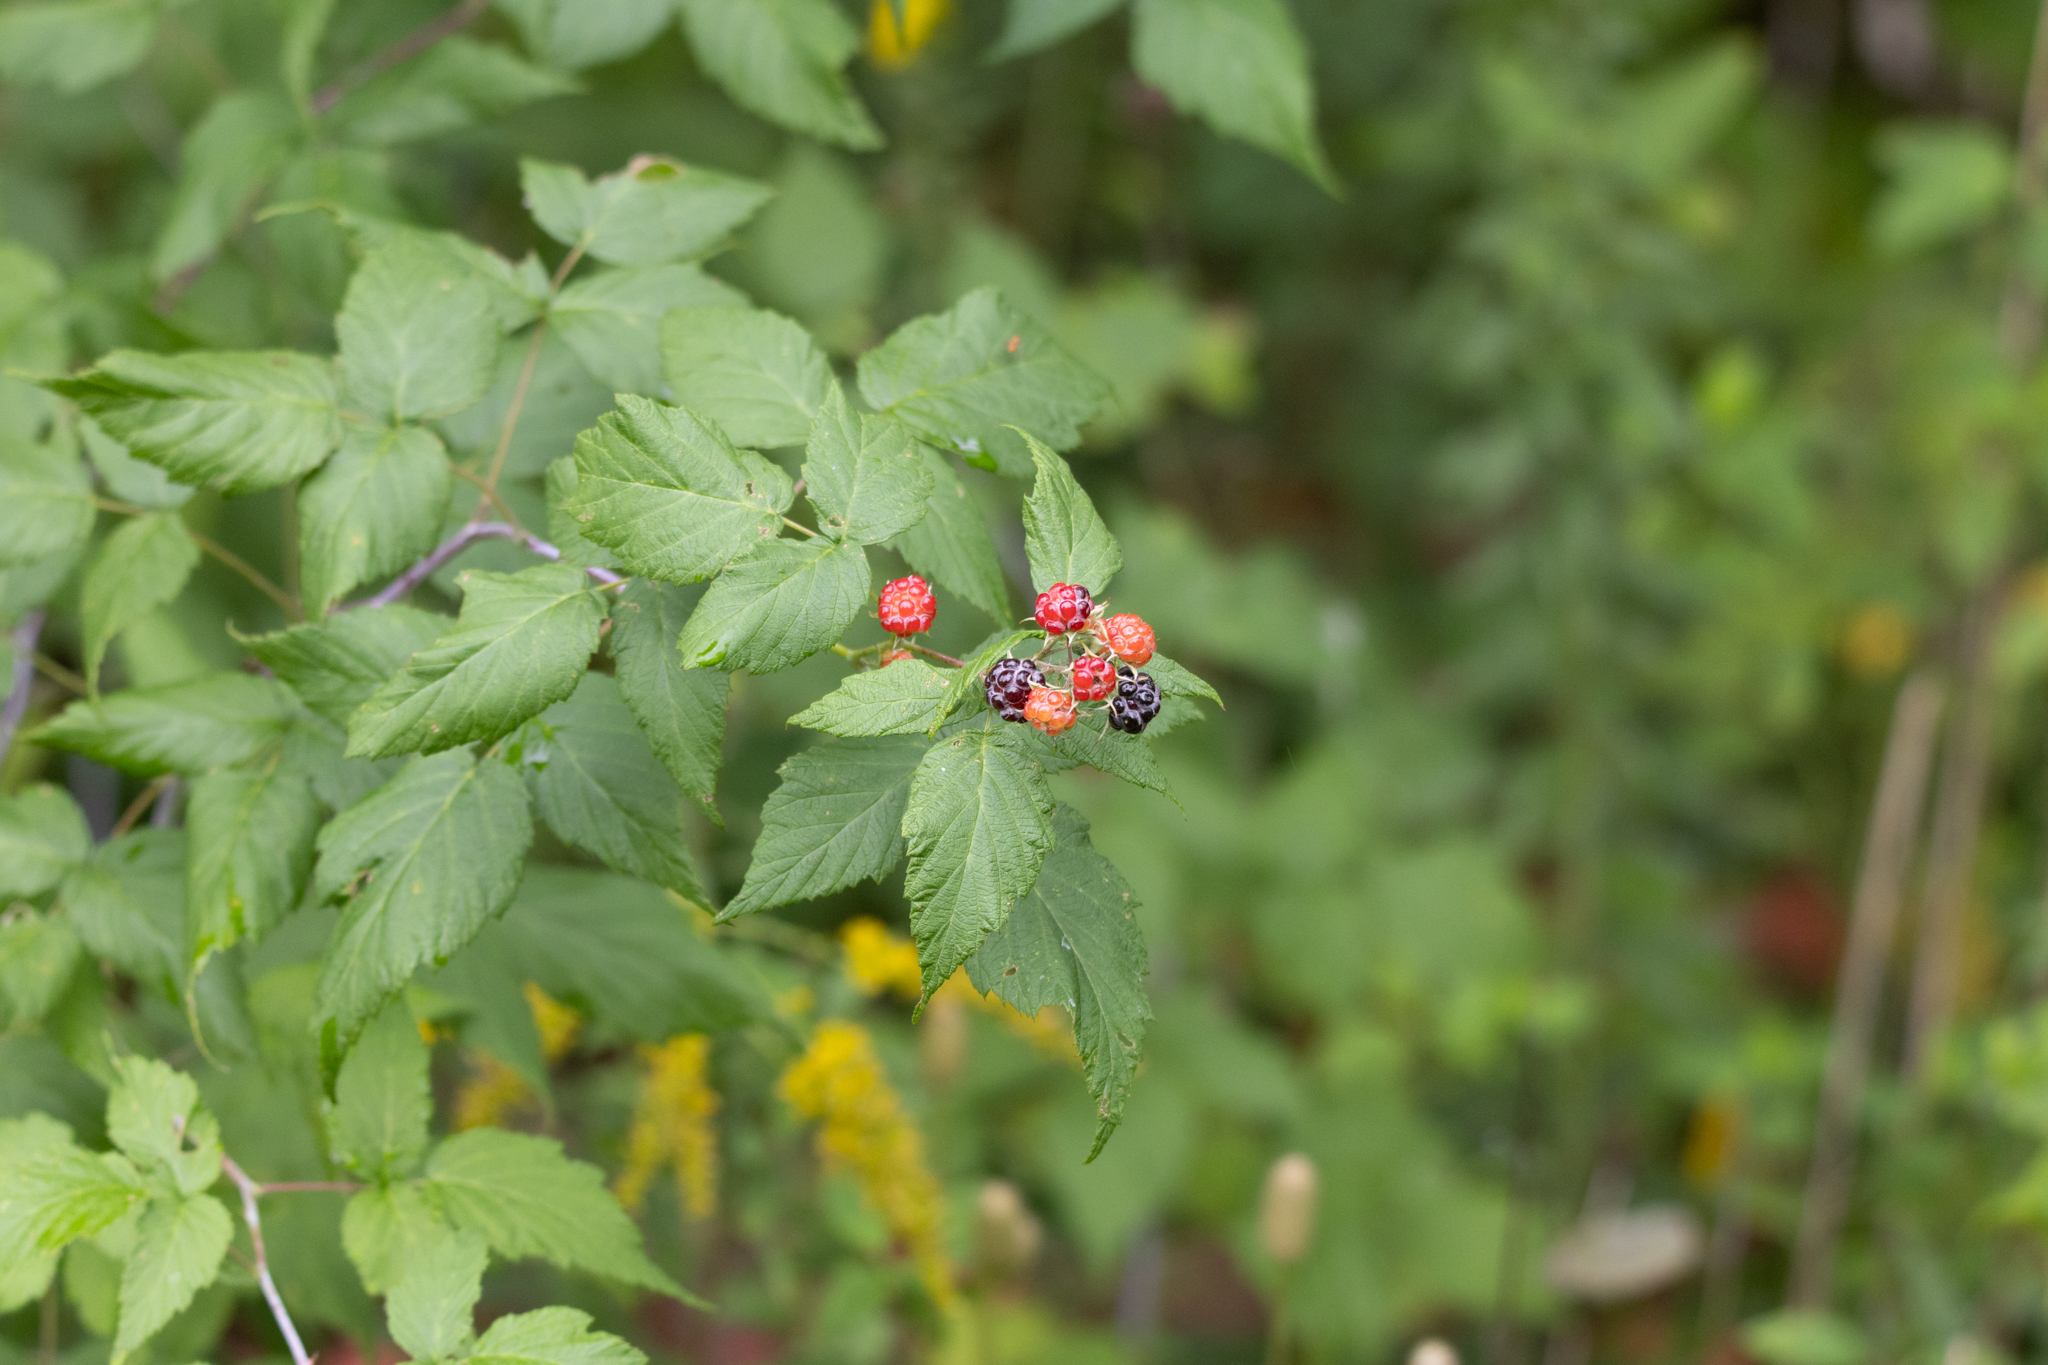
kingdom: Plantae
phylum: Tracheophyta
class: Magnoliopsida
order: Rosales
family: Rosaceae
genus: Rubus
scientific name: Rubus occidentalis
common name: Black raspberry
